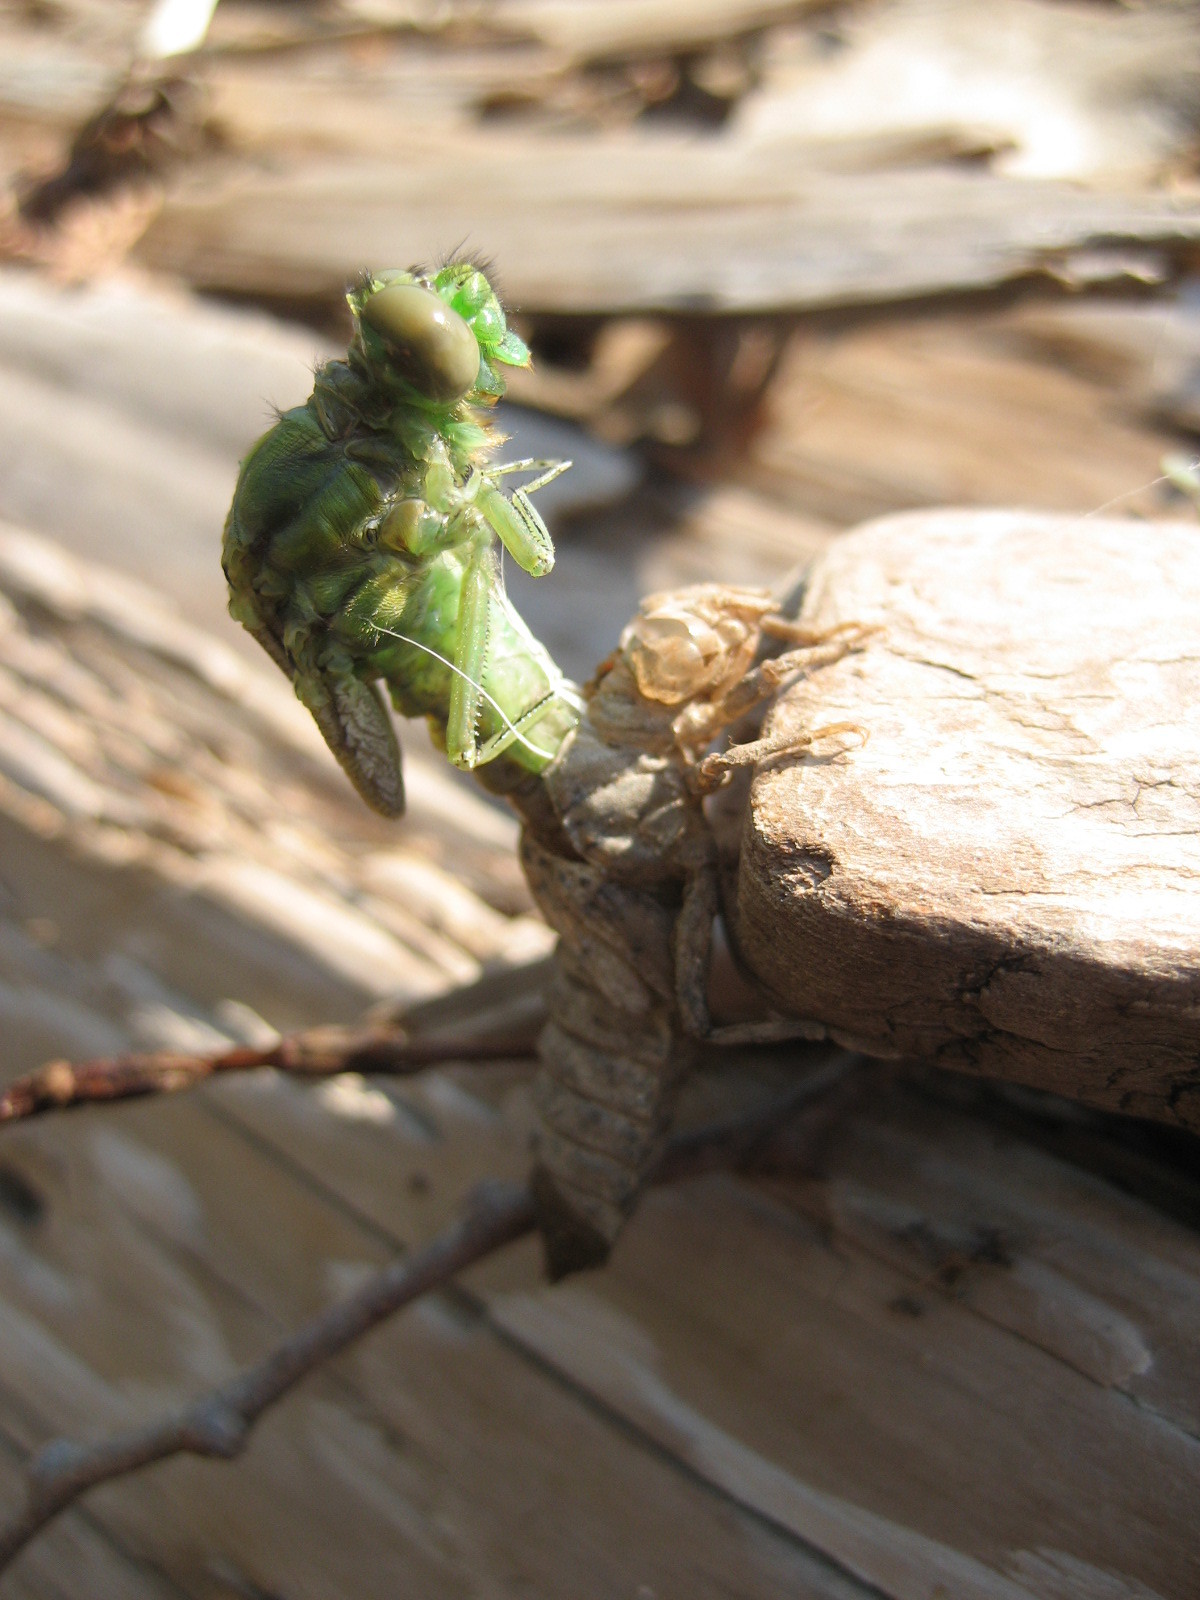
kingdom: Animalia
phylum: Arthropoda
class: Insecta
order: Odonata
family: Gomphidae
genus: Ophiogomphus
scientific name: Ophiogomphus rupinsulensis
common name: Rusty snaketail
